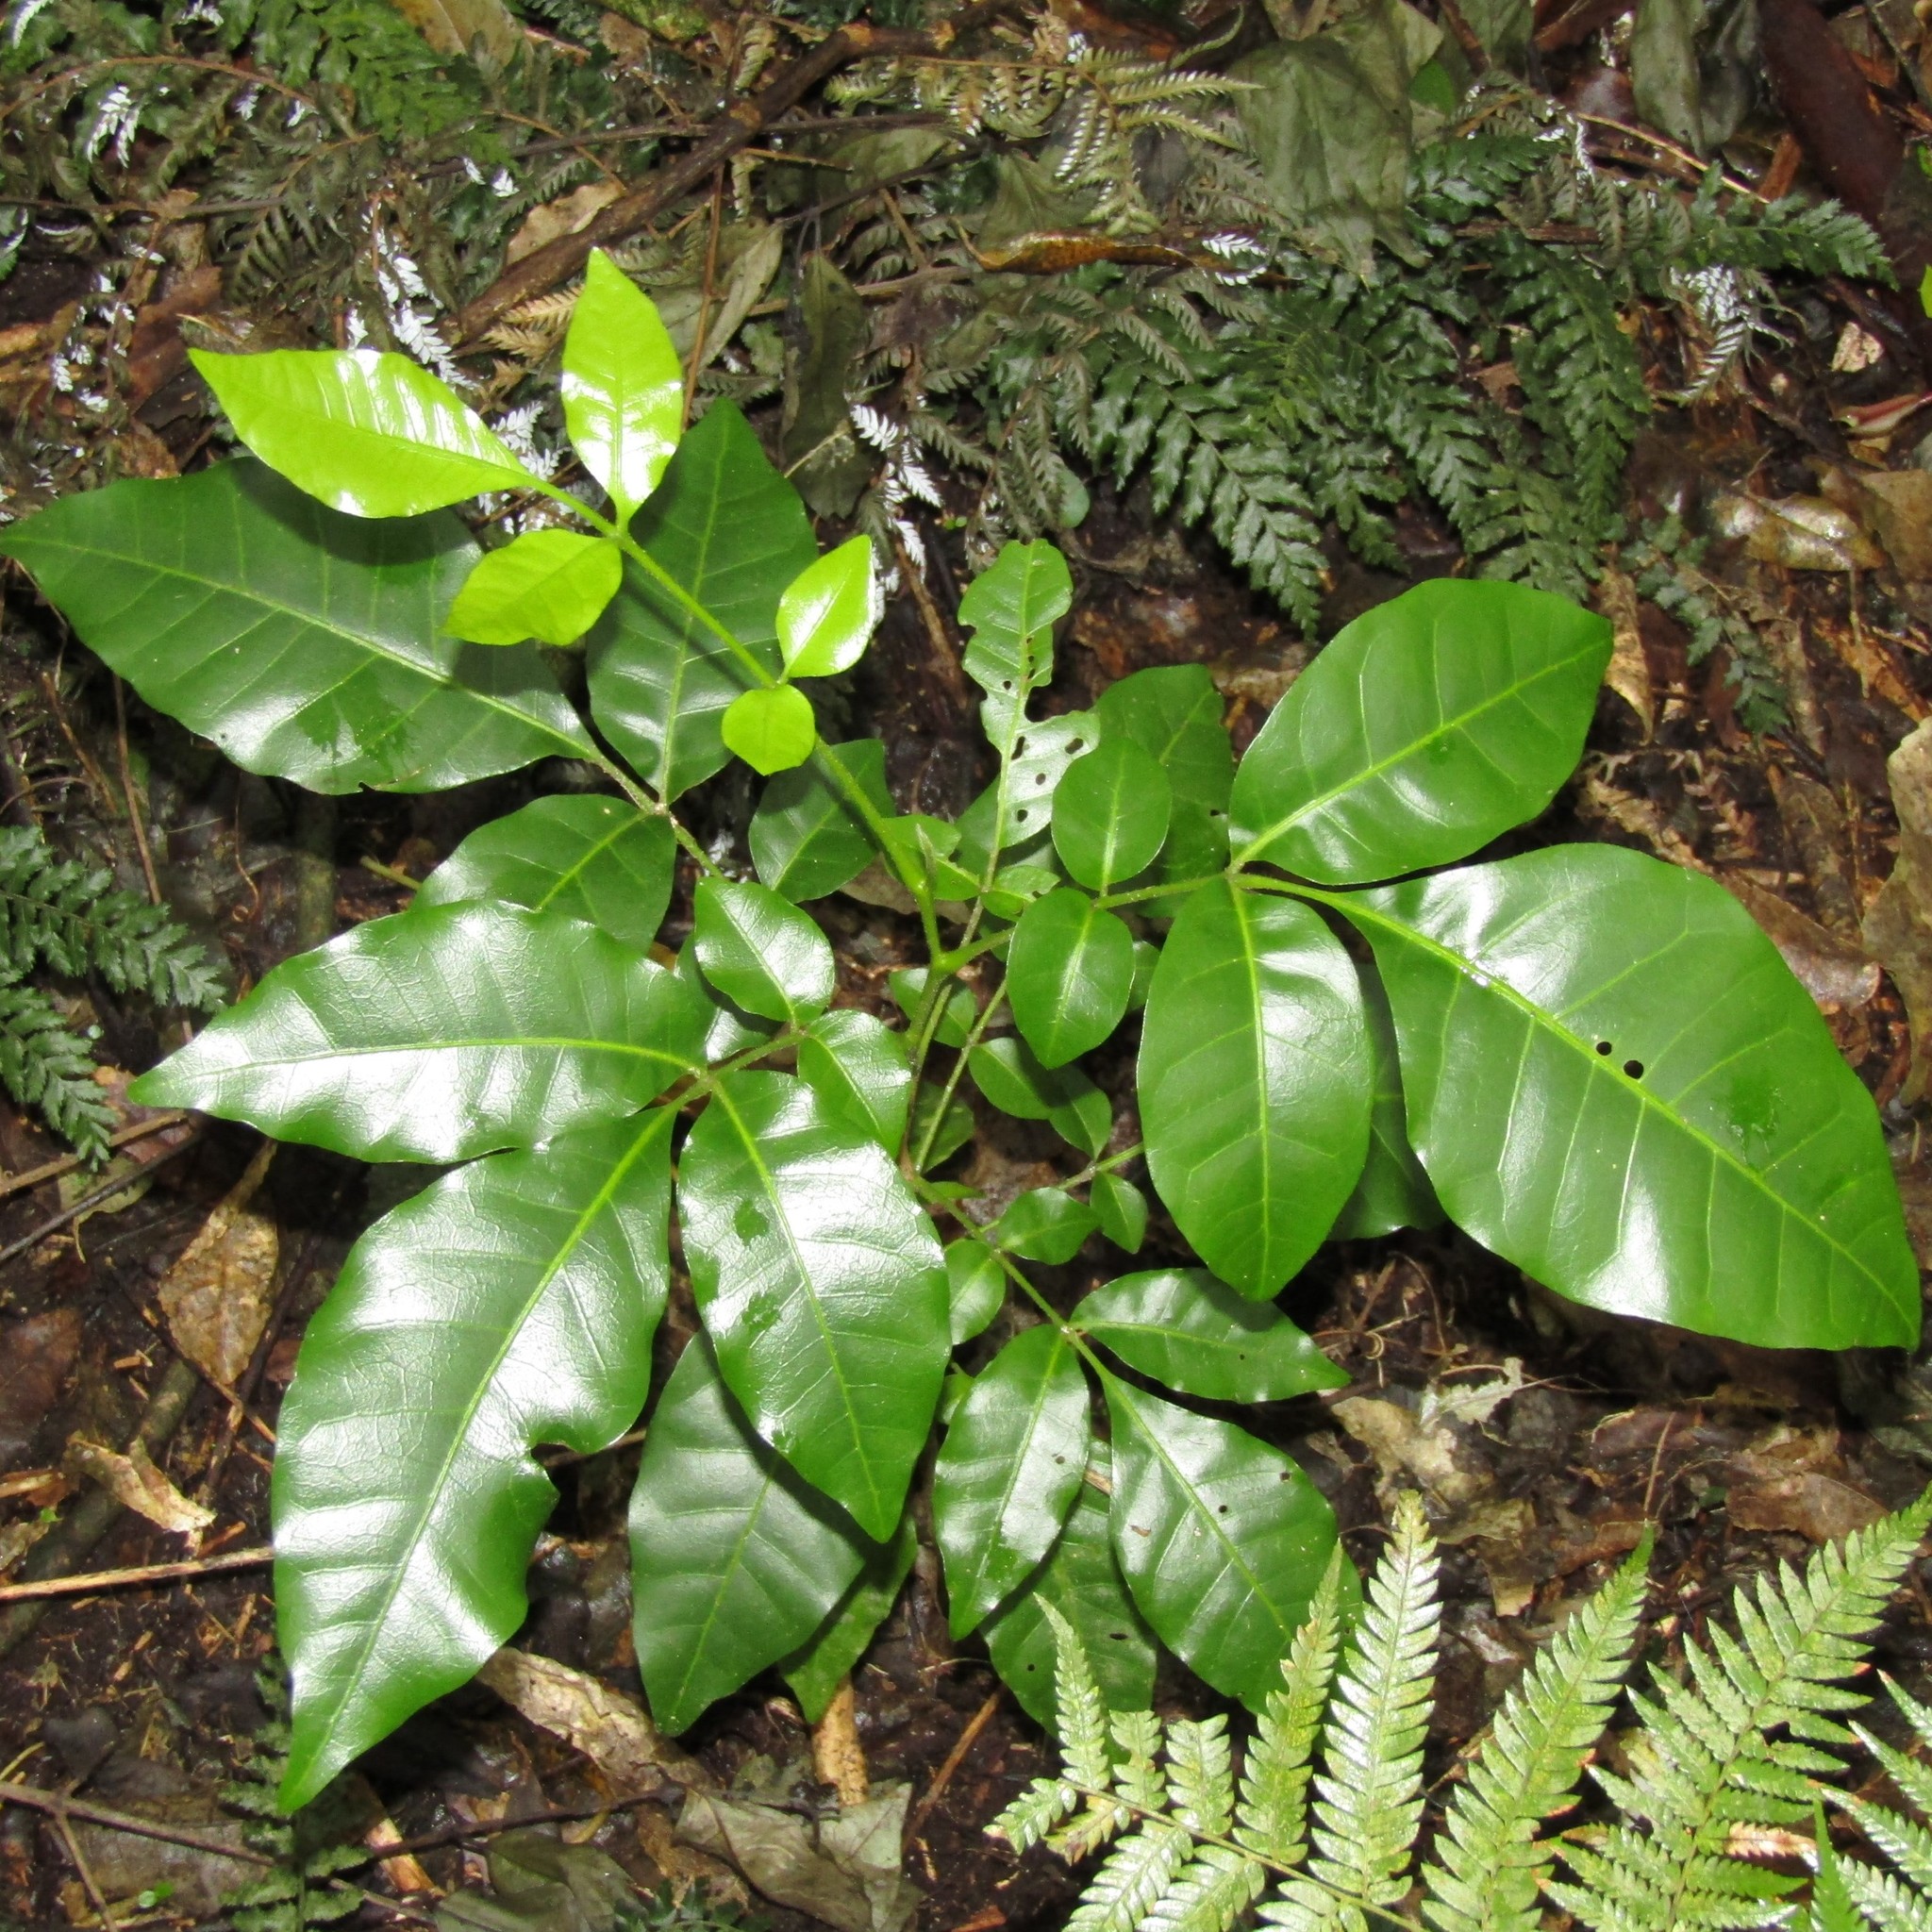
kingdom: Plantae
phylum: Tracheophyta
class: Magnoliopsida
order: Sapindales
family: Meliaceae
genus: Didymocheton
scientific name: Didymocheton spectabilis
